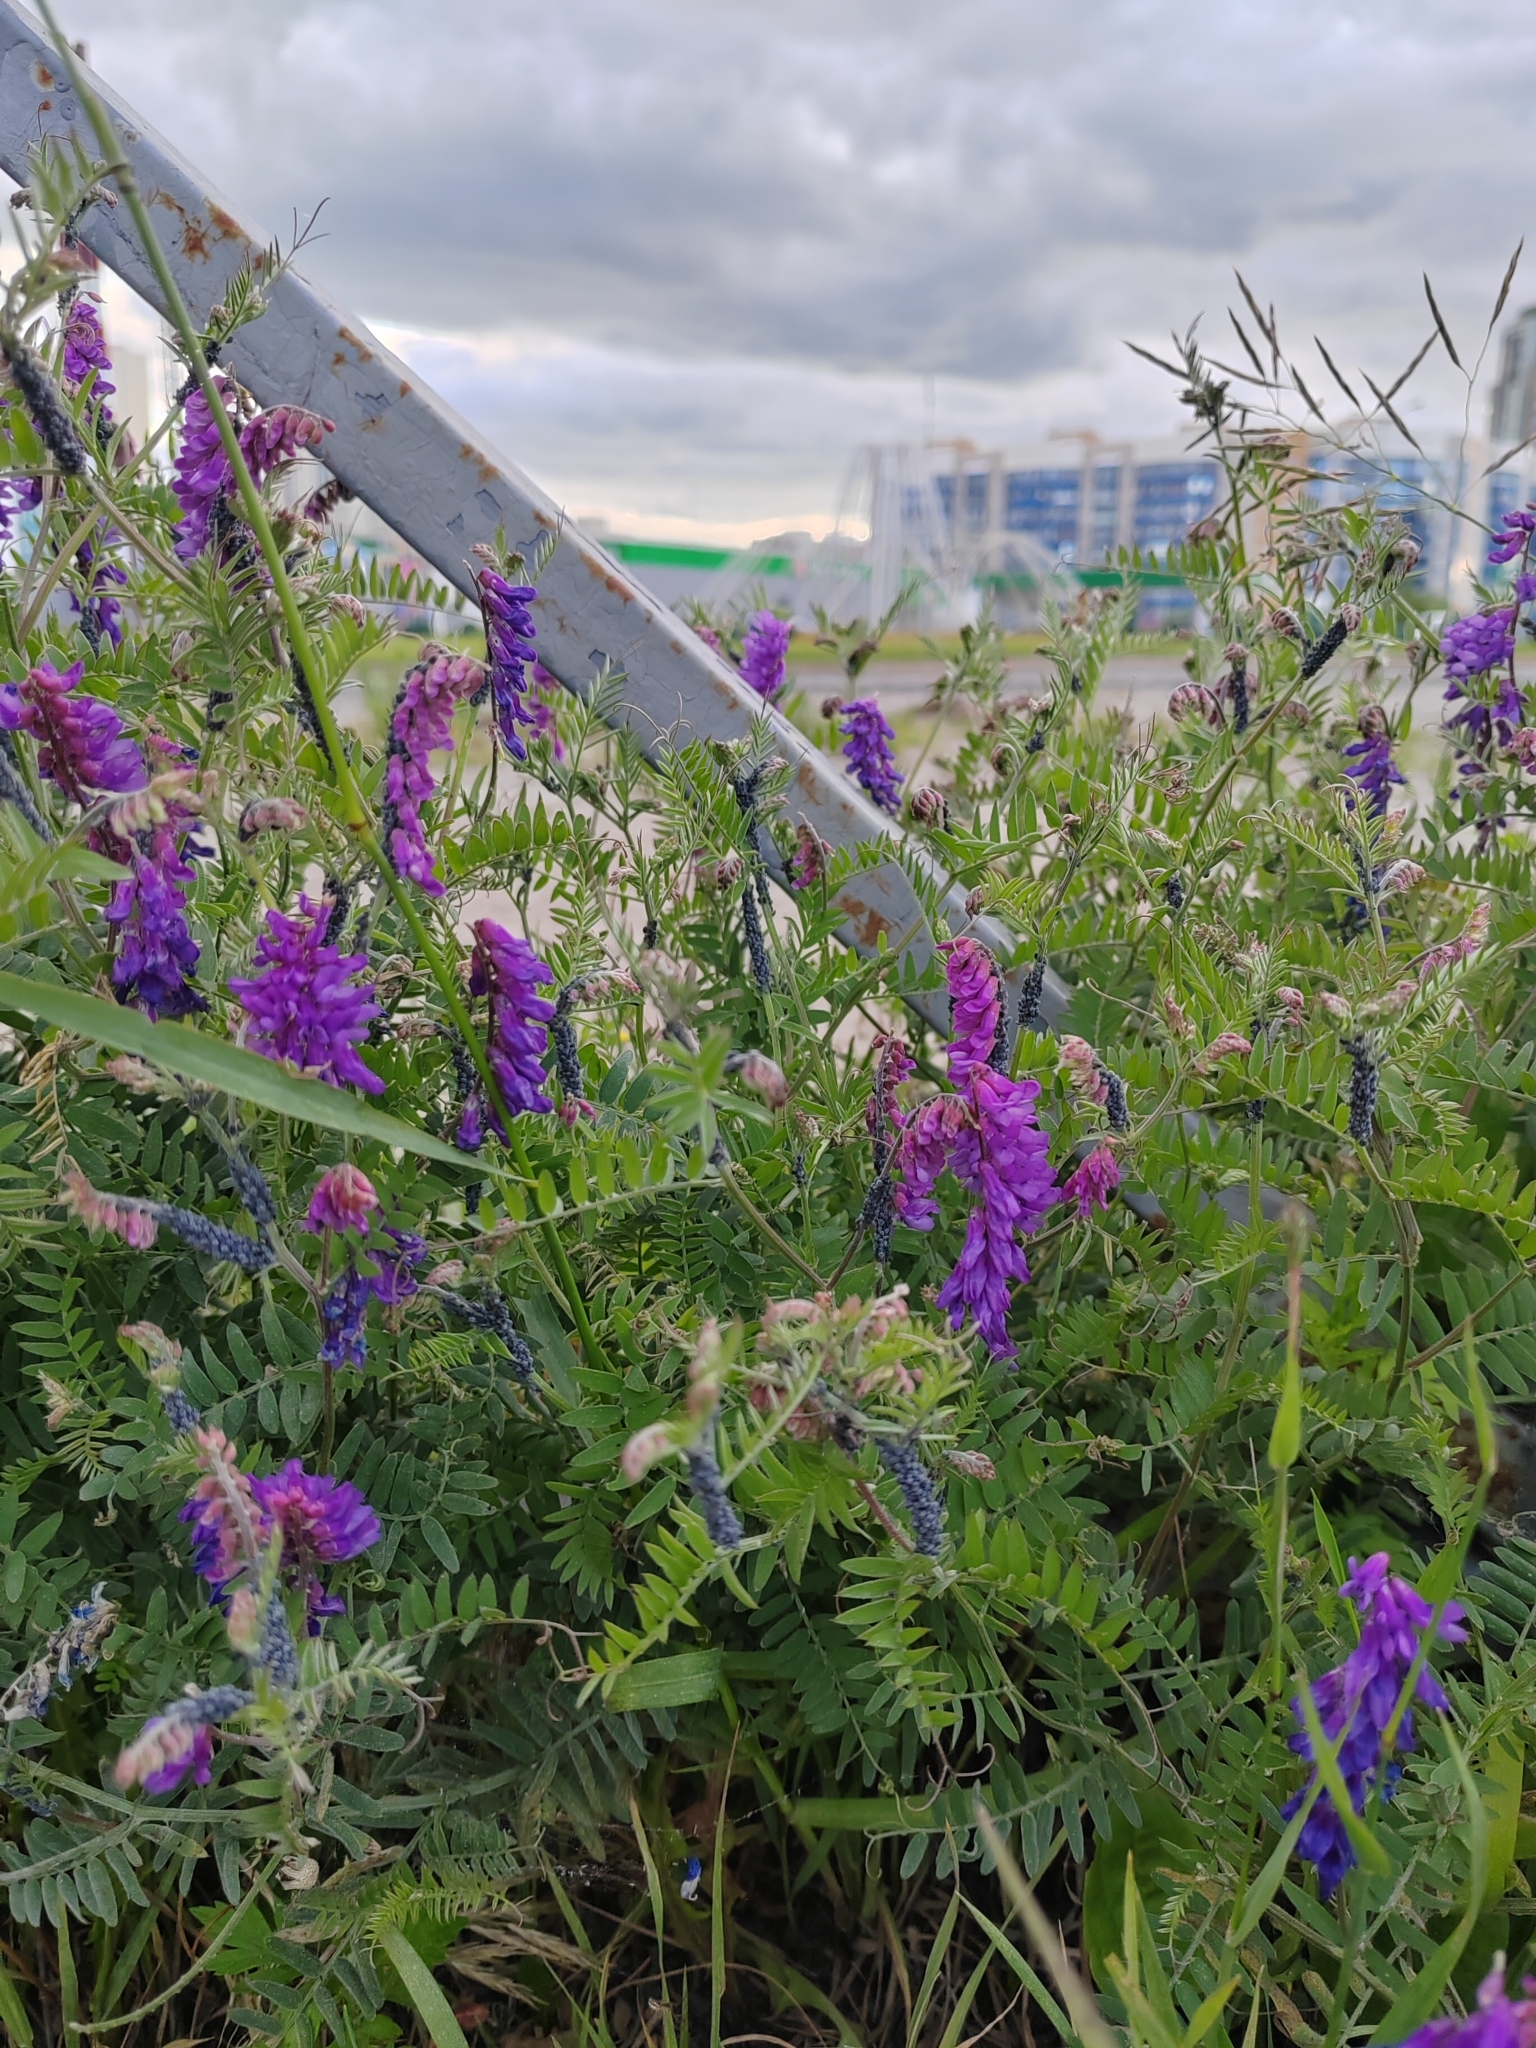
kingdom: Plantae
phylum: Tracheophyta
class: Magnoliopsida
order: Fabales
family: Fabaceae
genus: Vicia
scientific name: Vicia cracca
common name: Bird vetch
